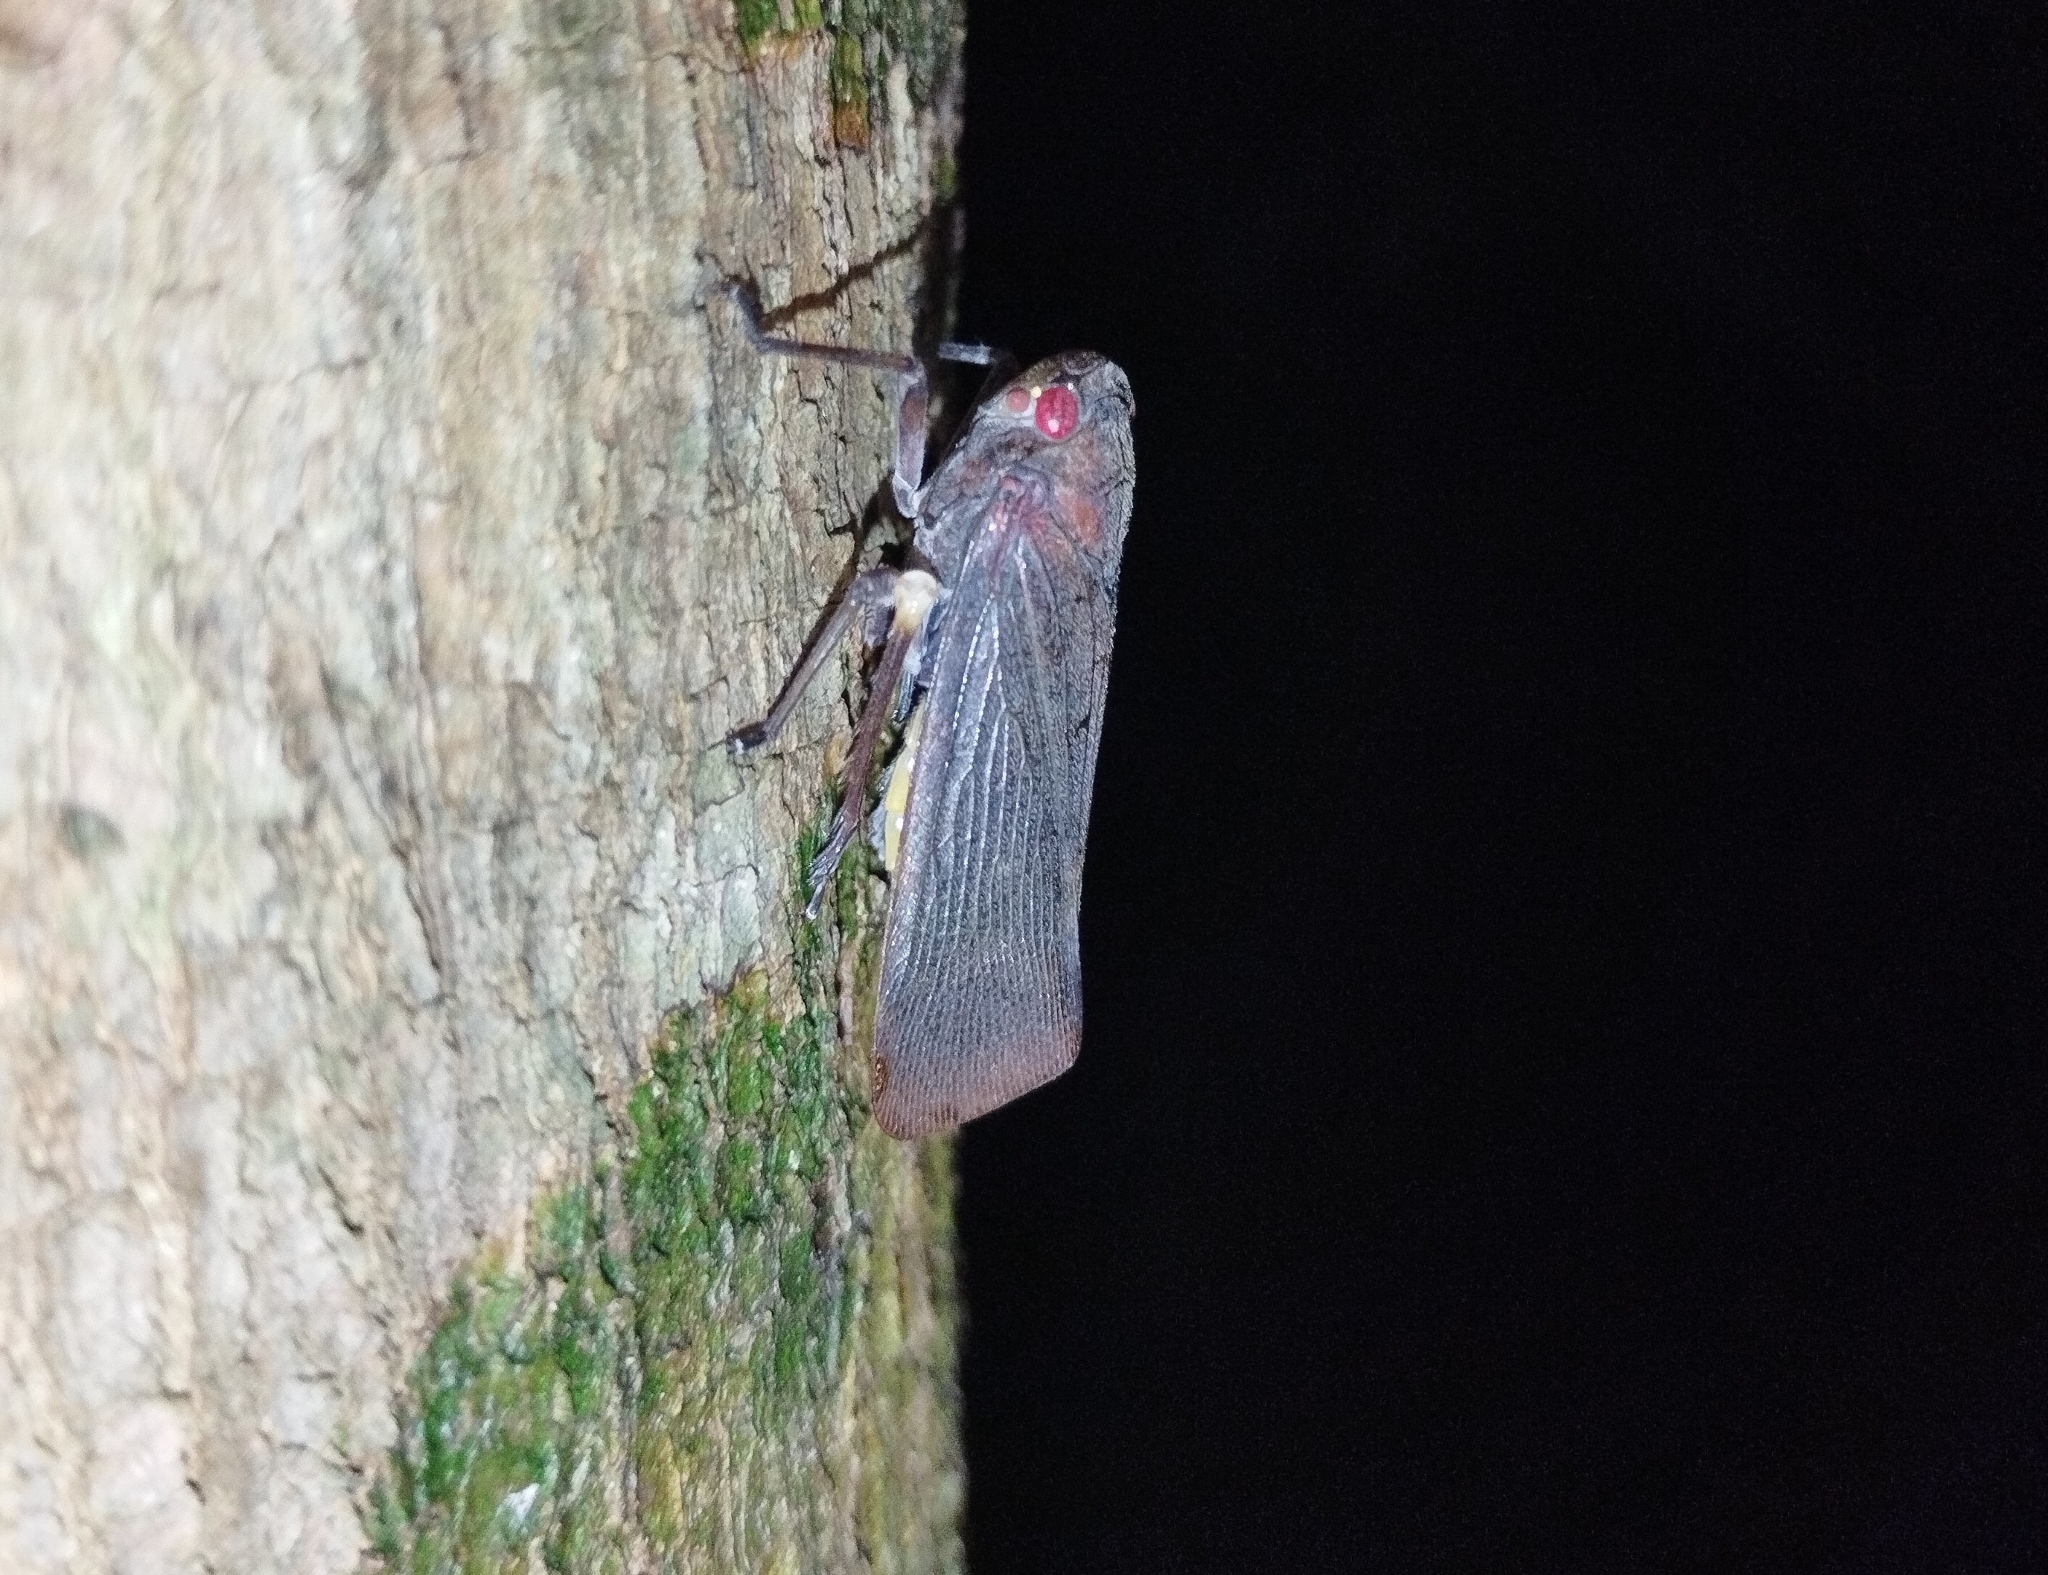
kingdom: Animalia
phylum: Arthropoda
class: Insecta
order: Hemiptera
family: Fulgoridae
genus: Acraephia
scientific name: Acraephia perspicillata
